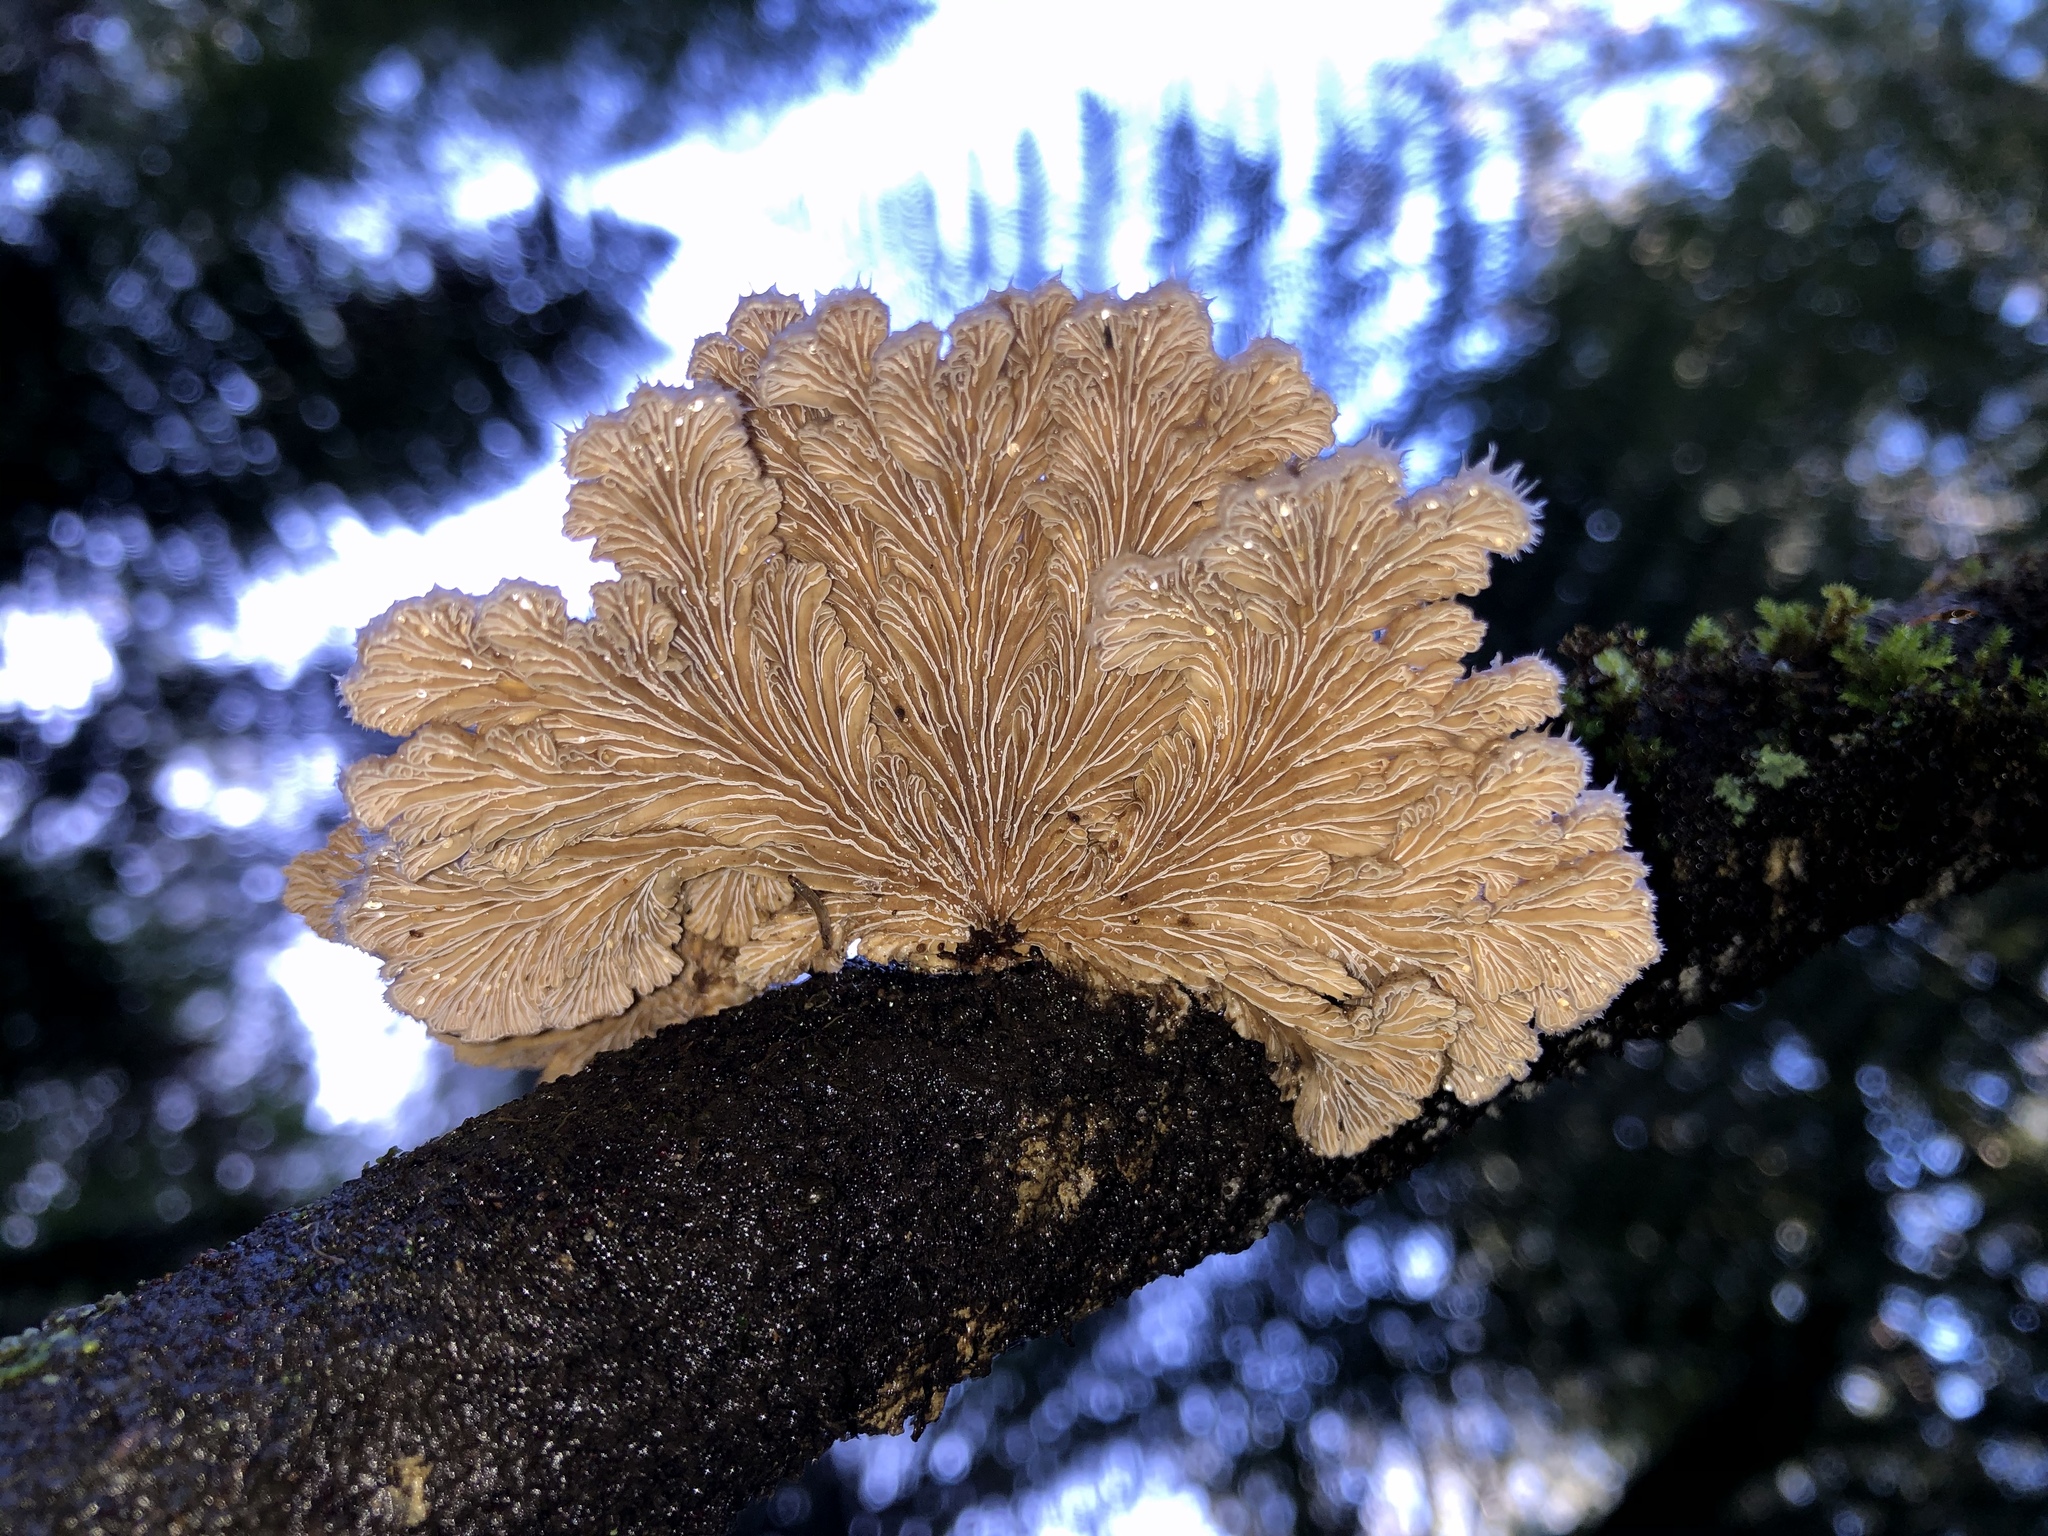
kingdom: Fungi
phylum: Basidiomycota
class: Agaricomycetes
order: Agaricales
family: Schizophyllaceae
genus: Schizophyllum
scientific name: Schizophyllum commune
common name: Common porecrust
